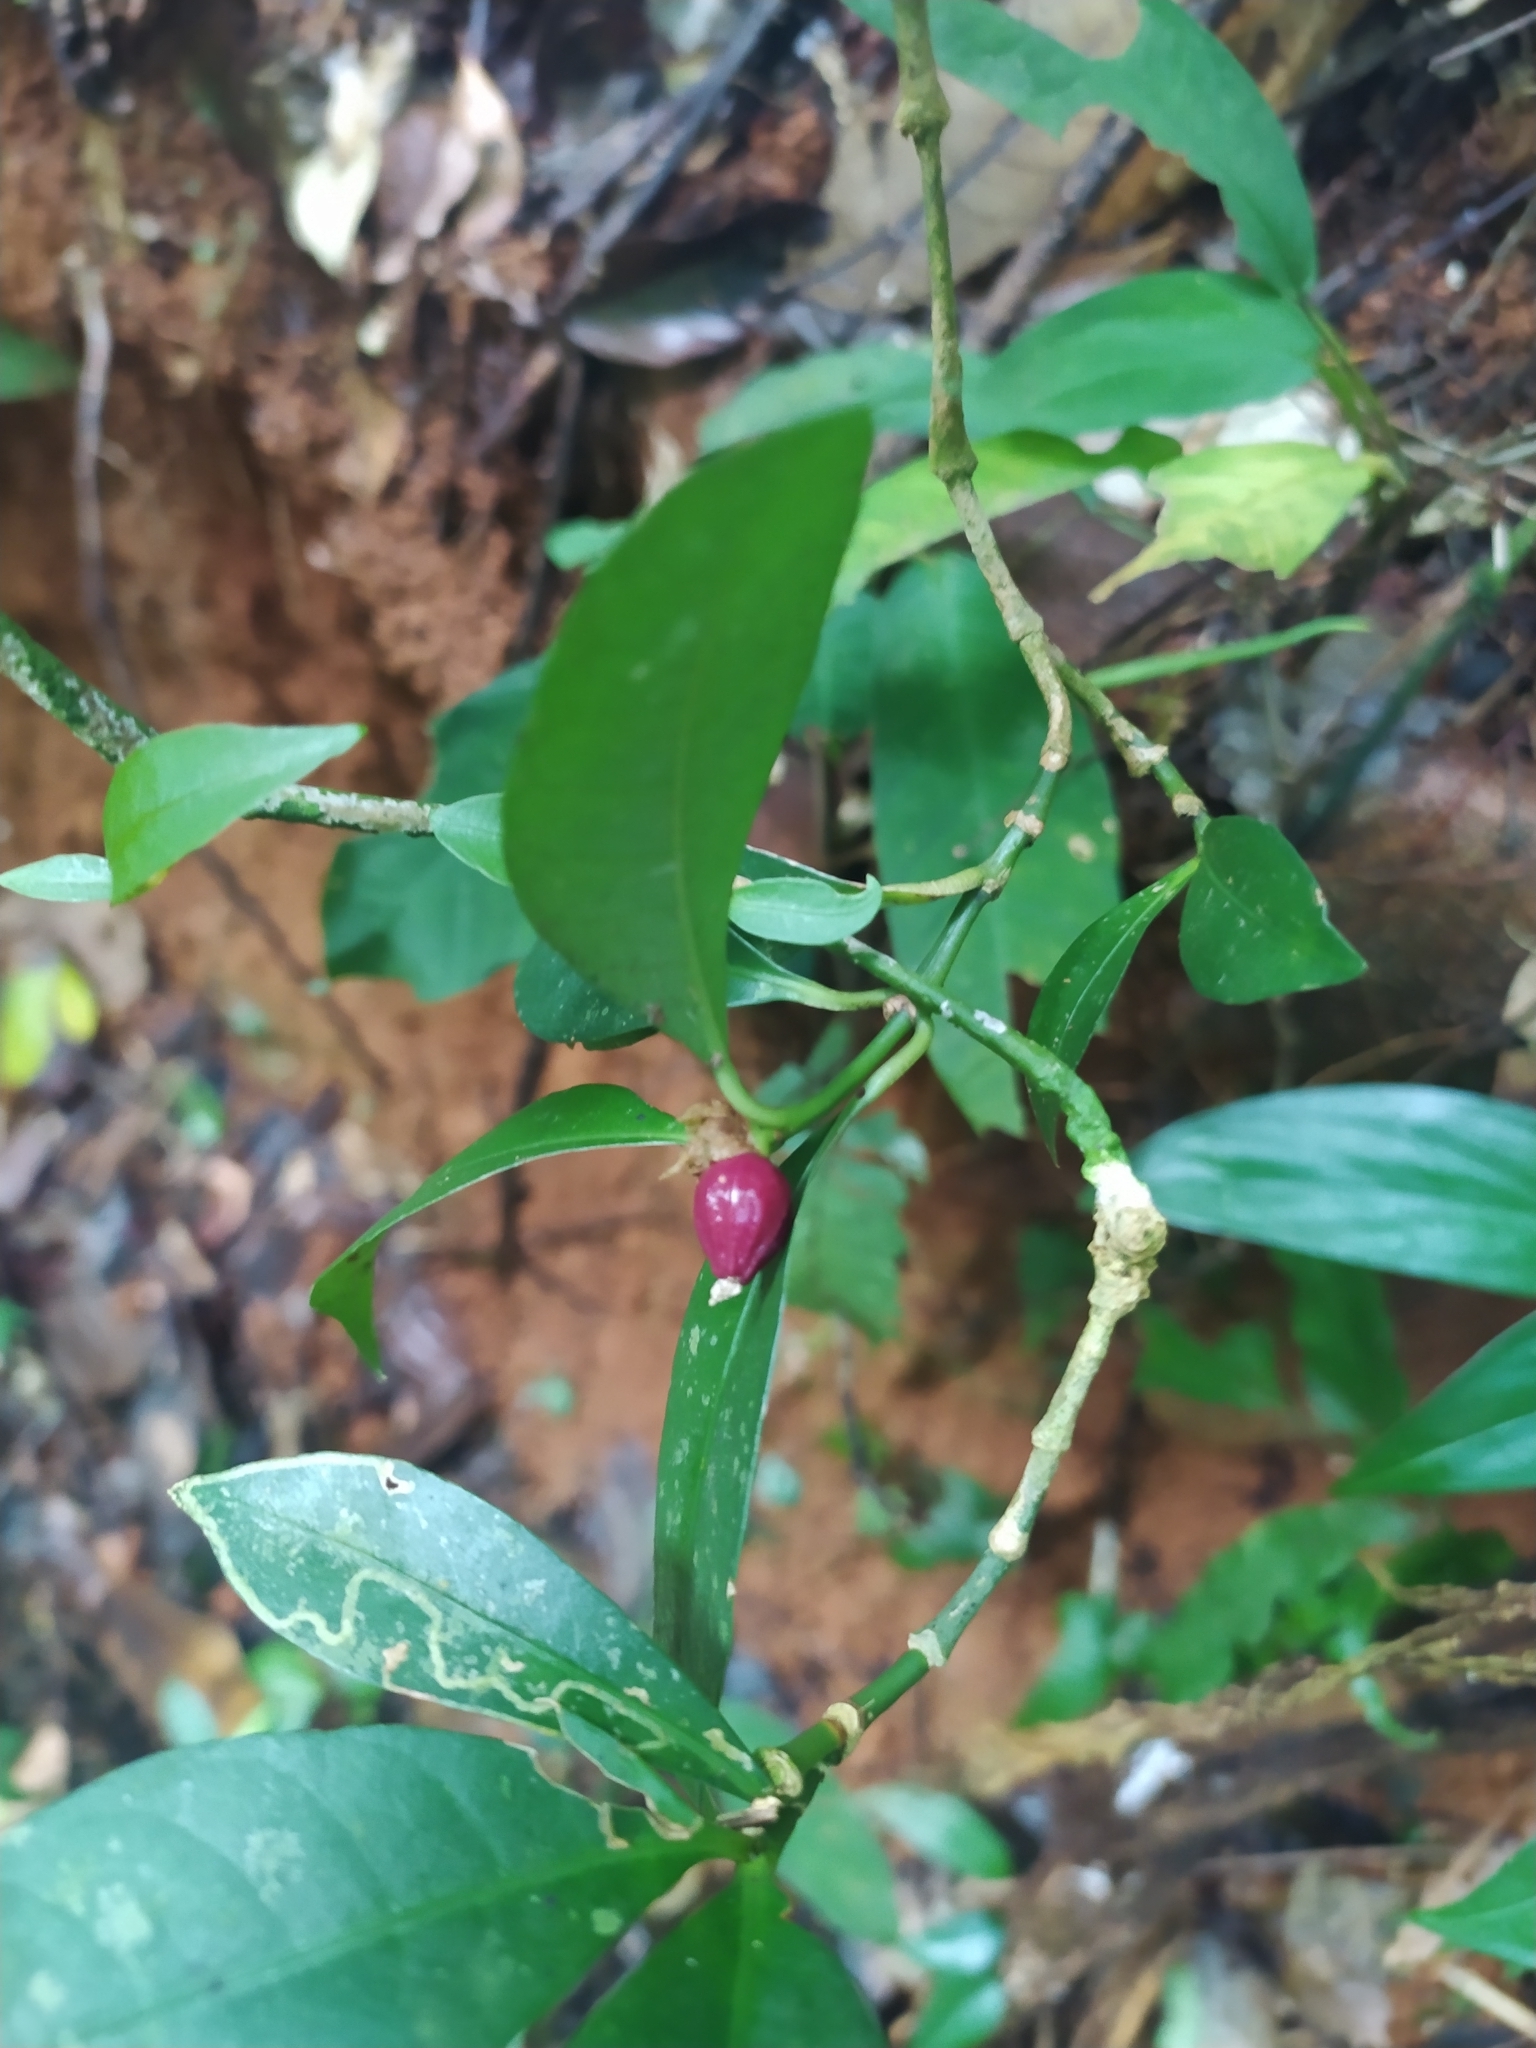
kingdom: Plantae
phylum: Tracheophyta
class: Magnoliopsida
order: Gentianales
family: Rubiaceae
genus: Eumachia
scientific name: Eumachia kappleri
